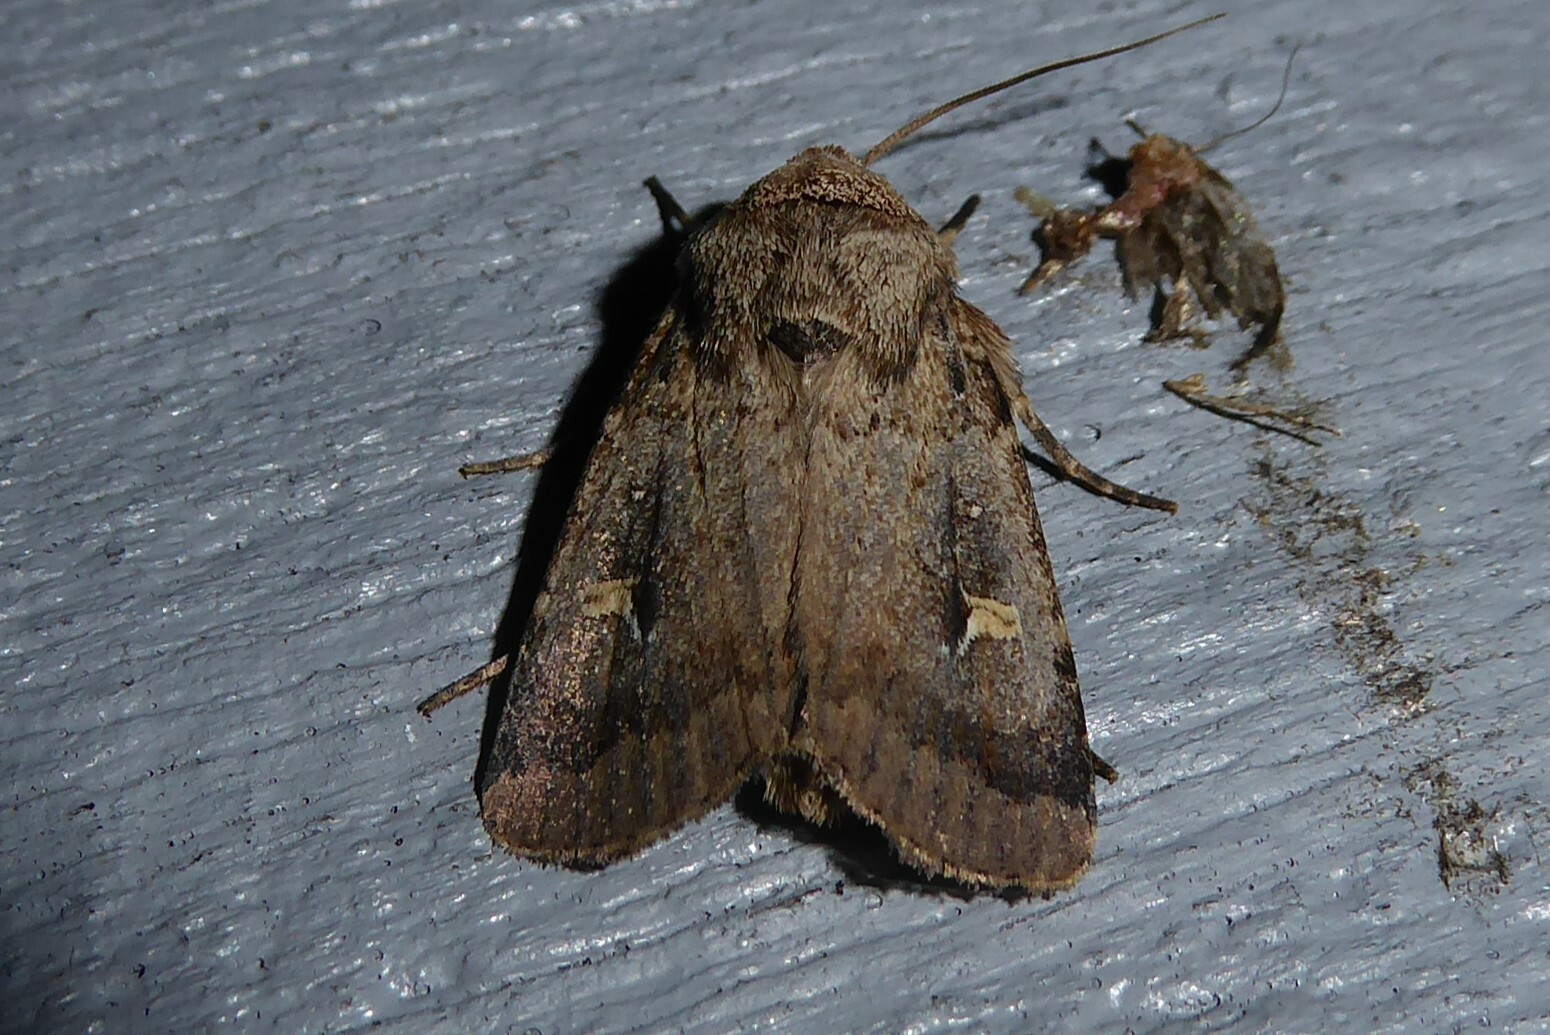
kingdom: Animalia
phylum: Arthropoda
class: Insecta
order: Lepidoptera
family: Noctuidae
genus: Proteuxoa
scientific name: Proteuxoa tetronycha
